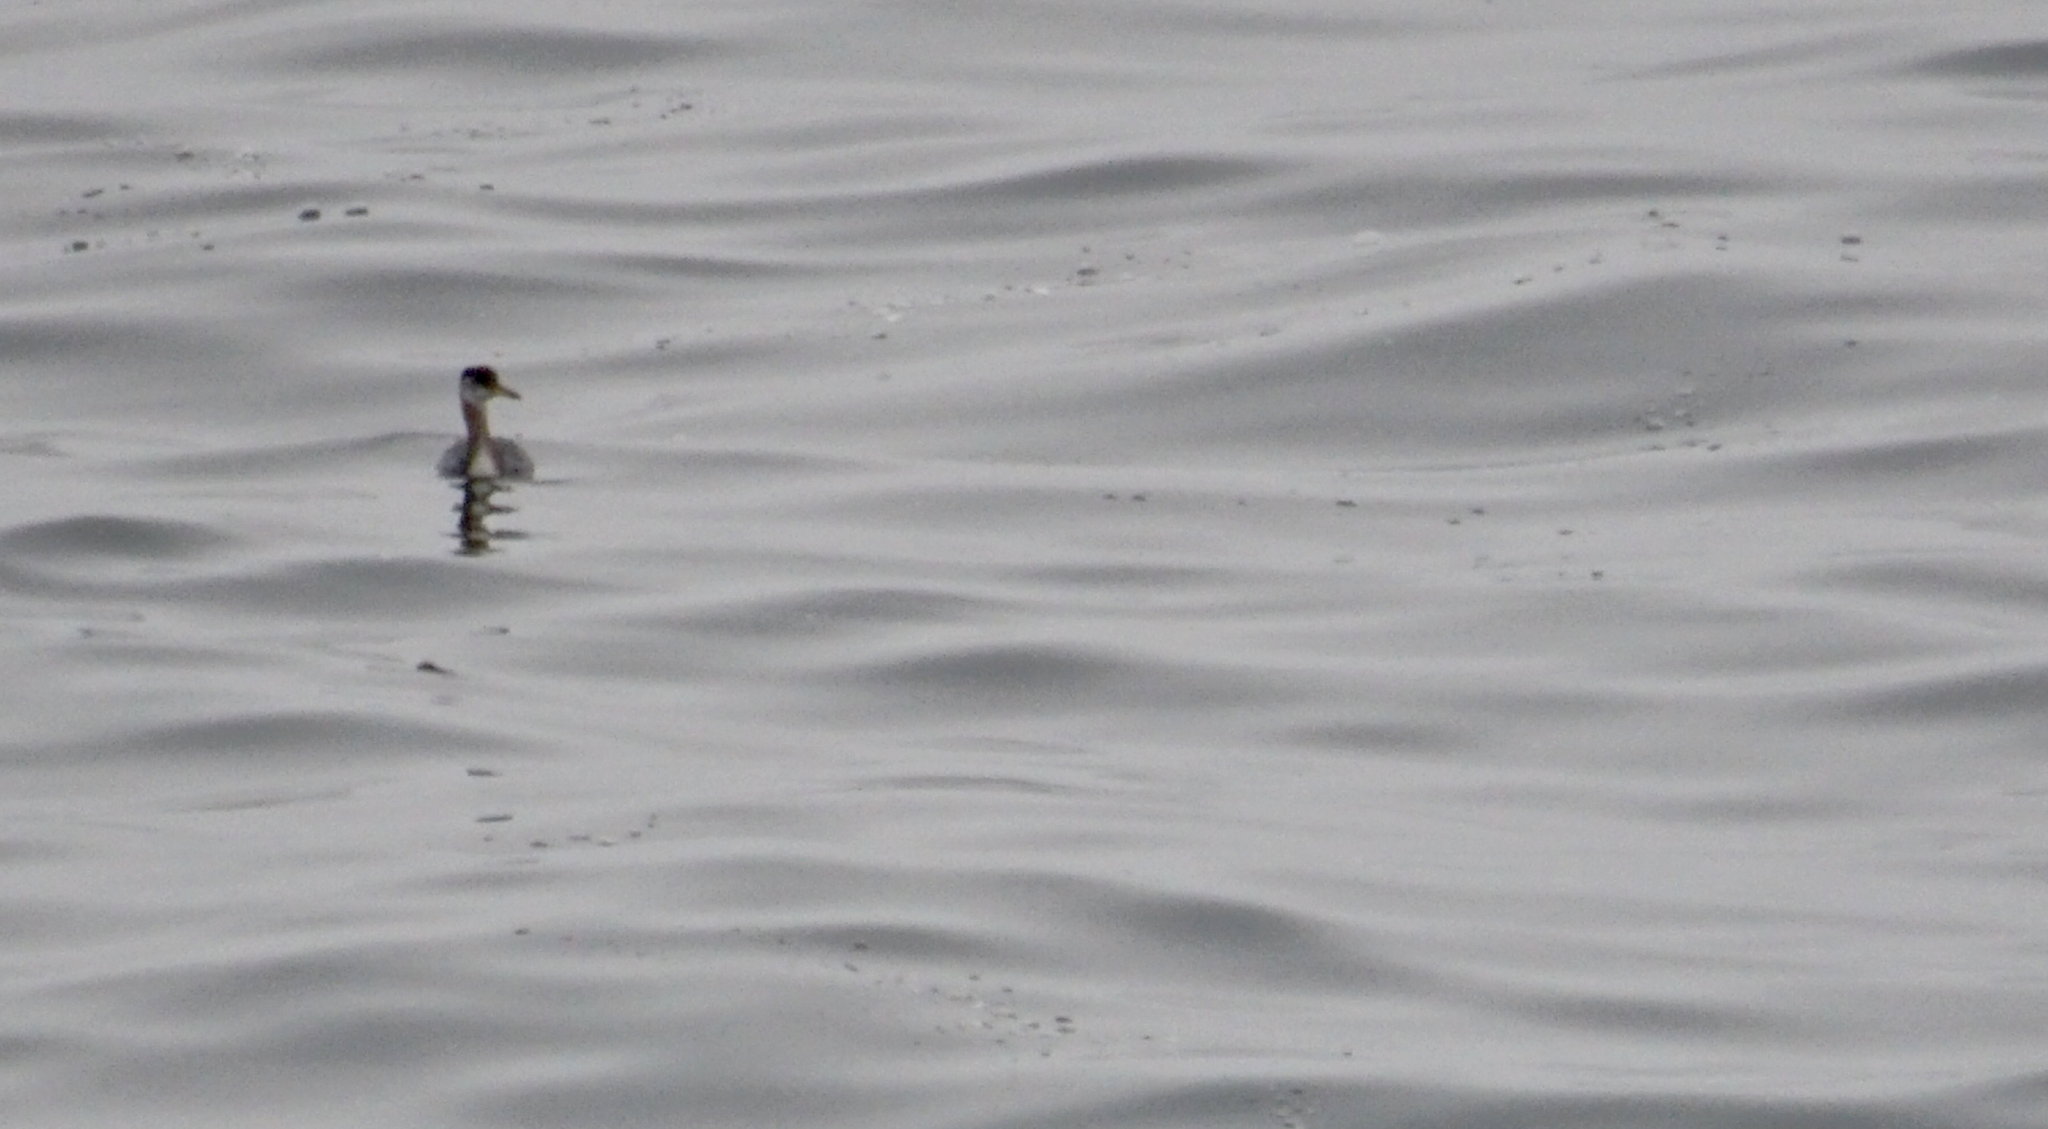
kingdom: Animalia
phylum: Chordata
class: Aves
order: Podicipediformes
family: Podicipedidae
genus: Podiceps
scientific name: Podiceps grisegena
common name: Red-necked grebe
